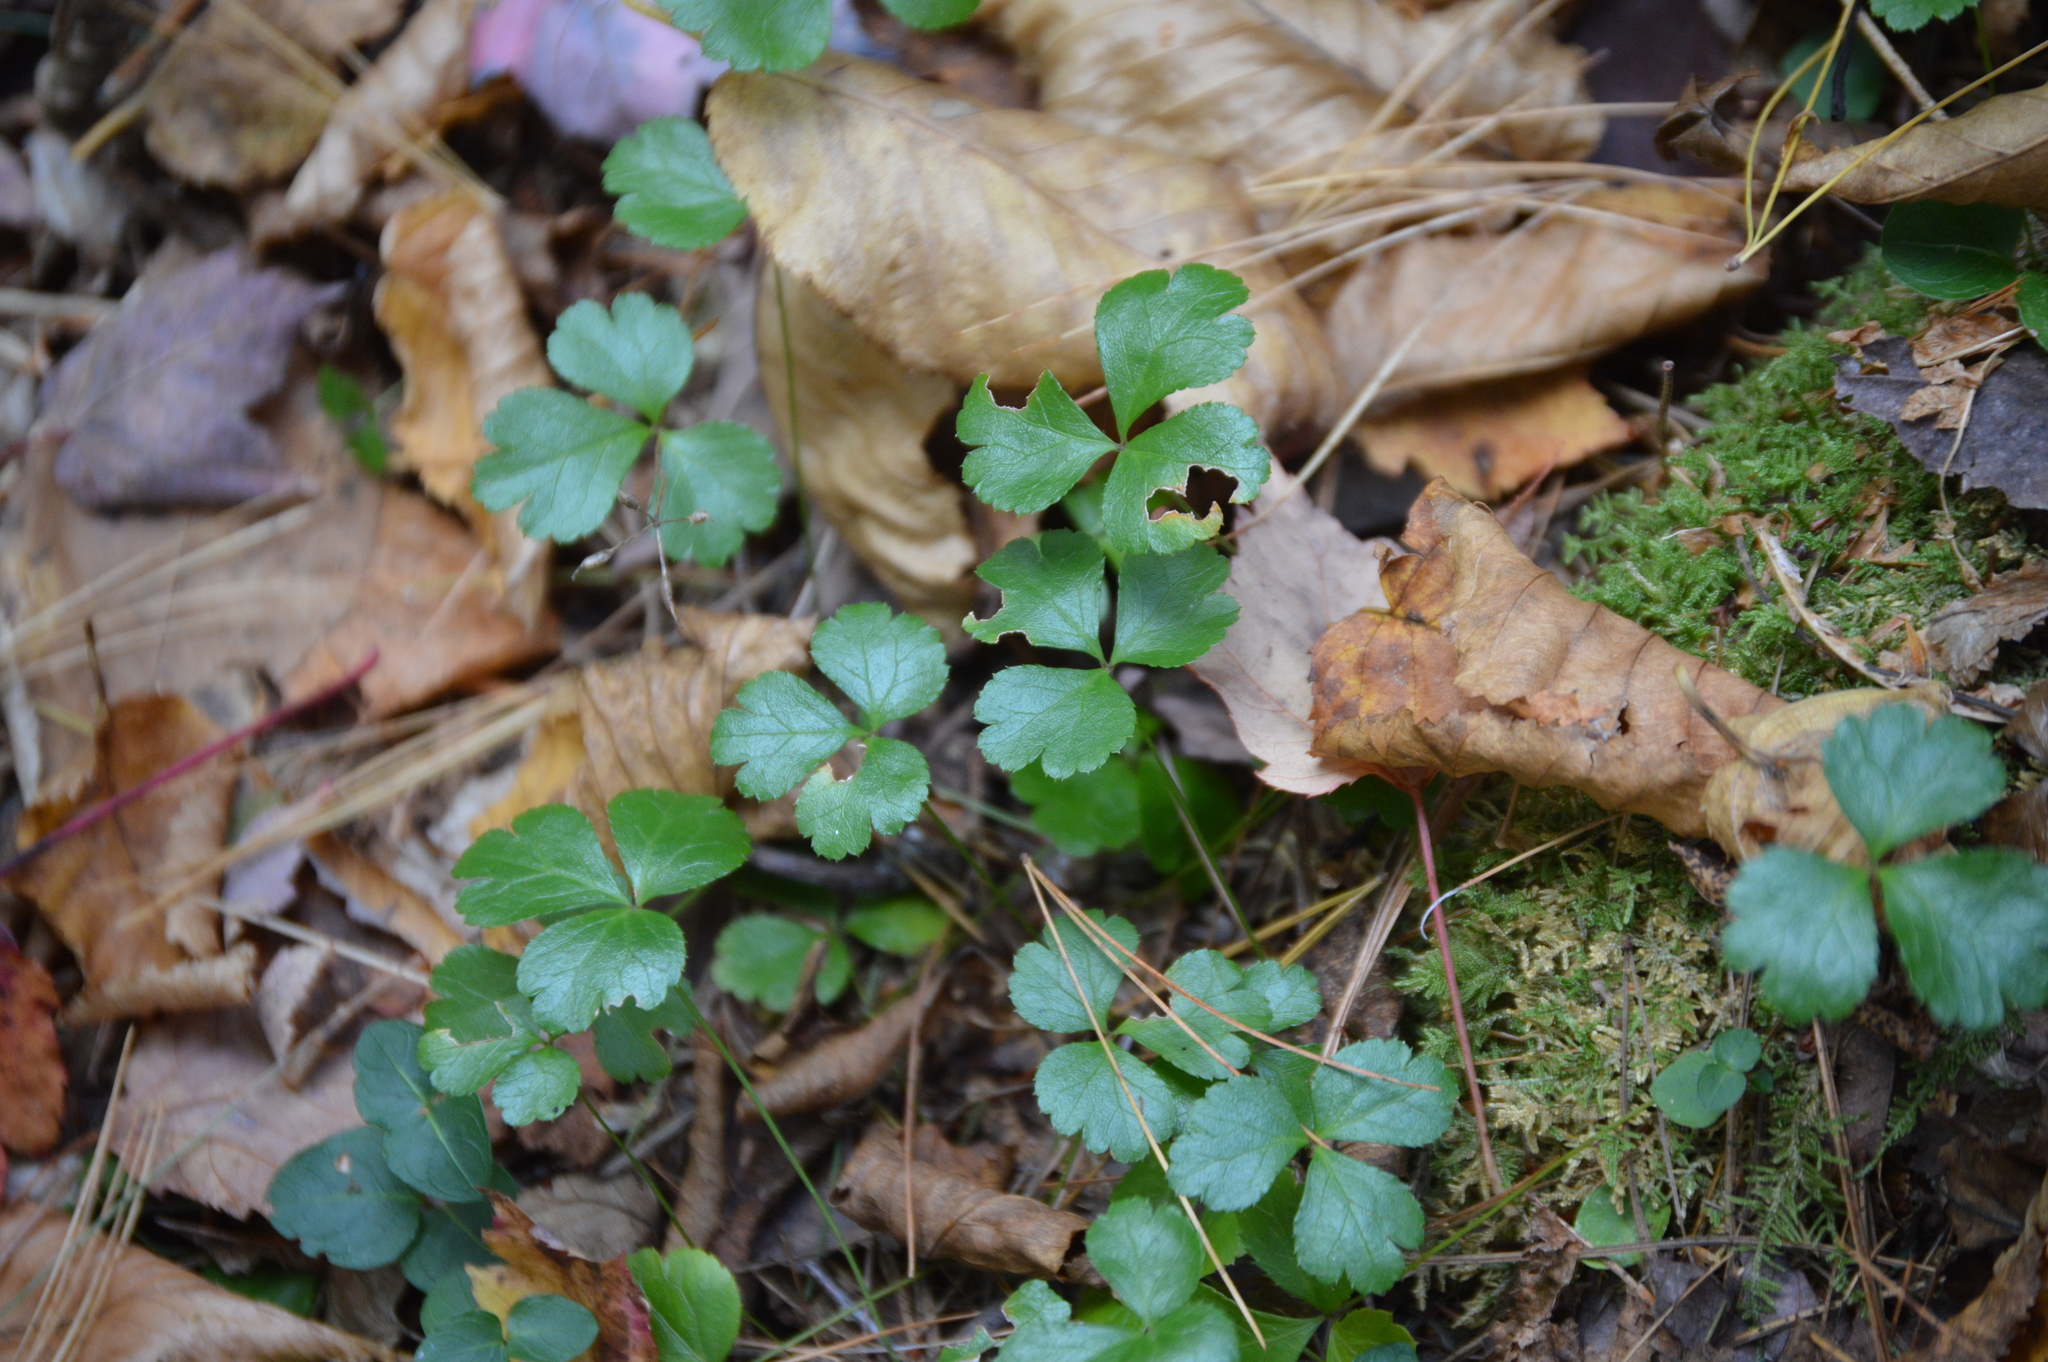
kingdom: Plantae
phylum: Tracheophyta
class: Magnoliopsida
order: Ranunculales
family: Ranunculaceae
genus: Coptis
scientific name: Coptis trifolia
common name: Canker-root
